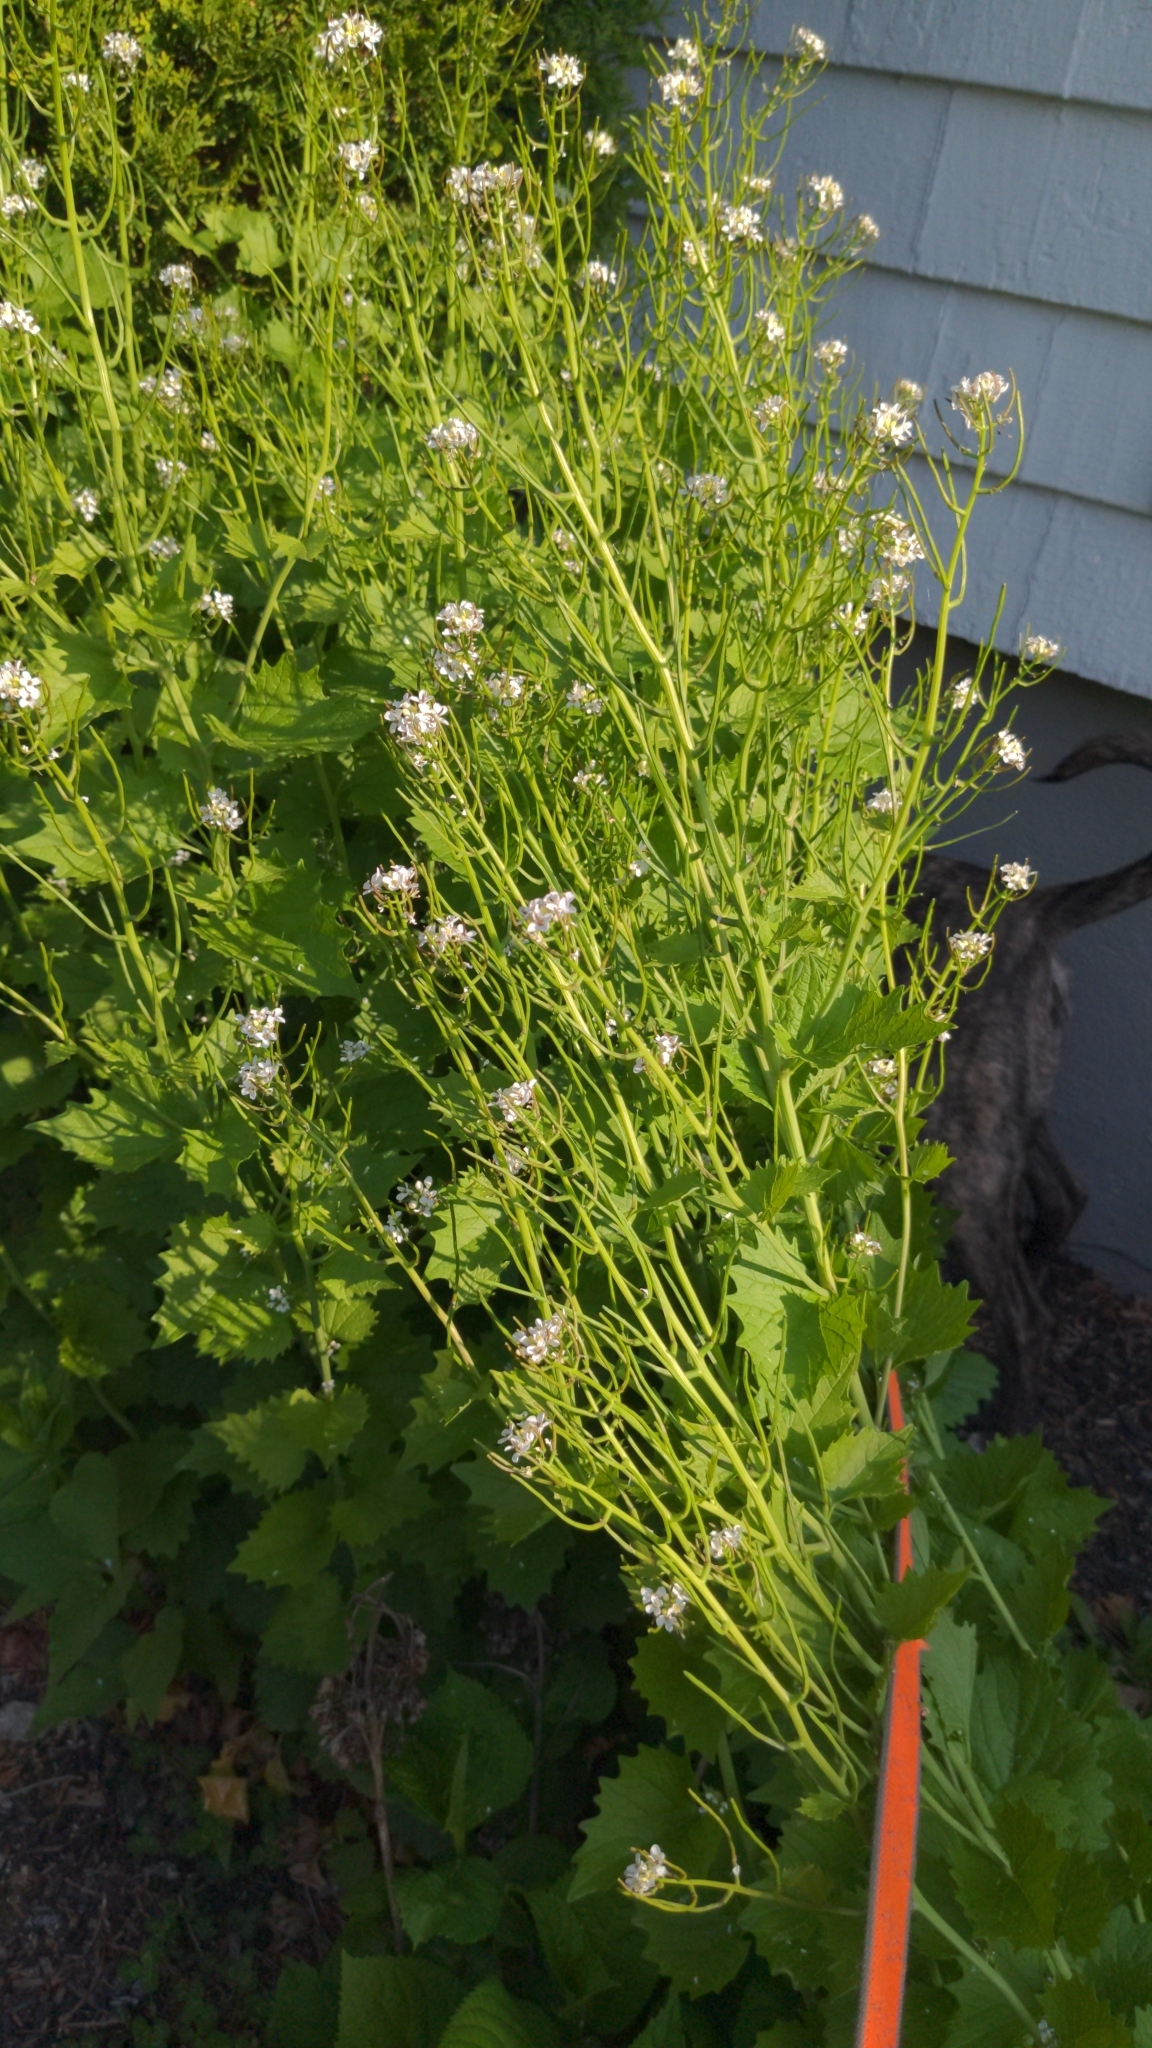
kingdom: Plantae
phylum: Tracheophyta
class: Magnoliopsida
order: Brassicales
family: Brassicaceae
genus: Alliaria
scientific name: Alliaria petiolata
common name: Garlic mustard
